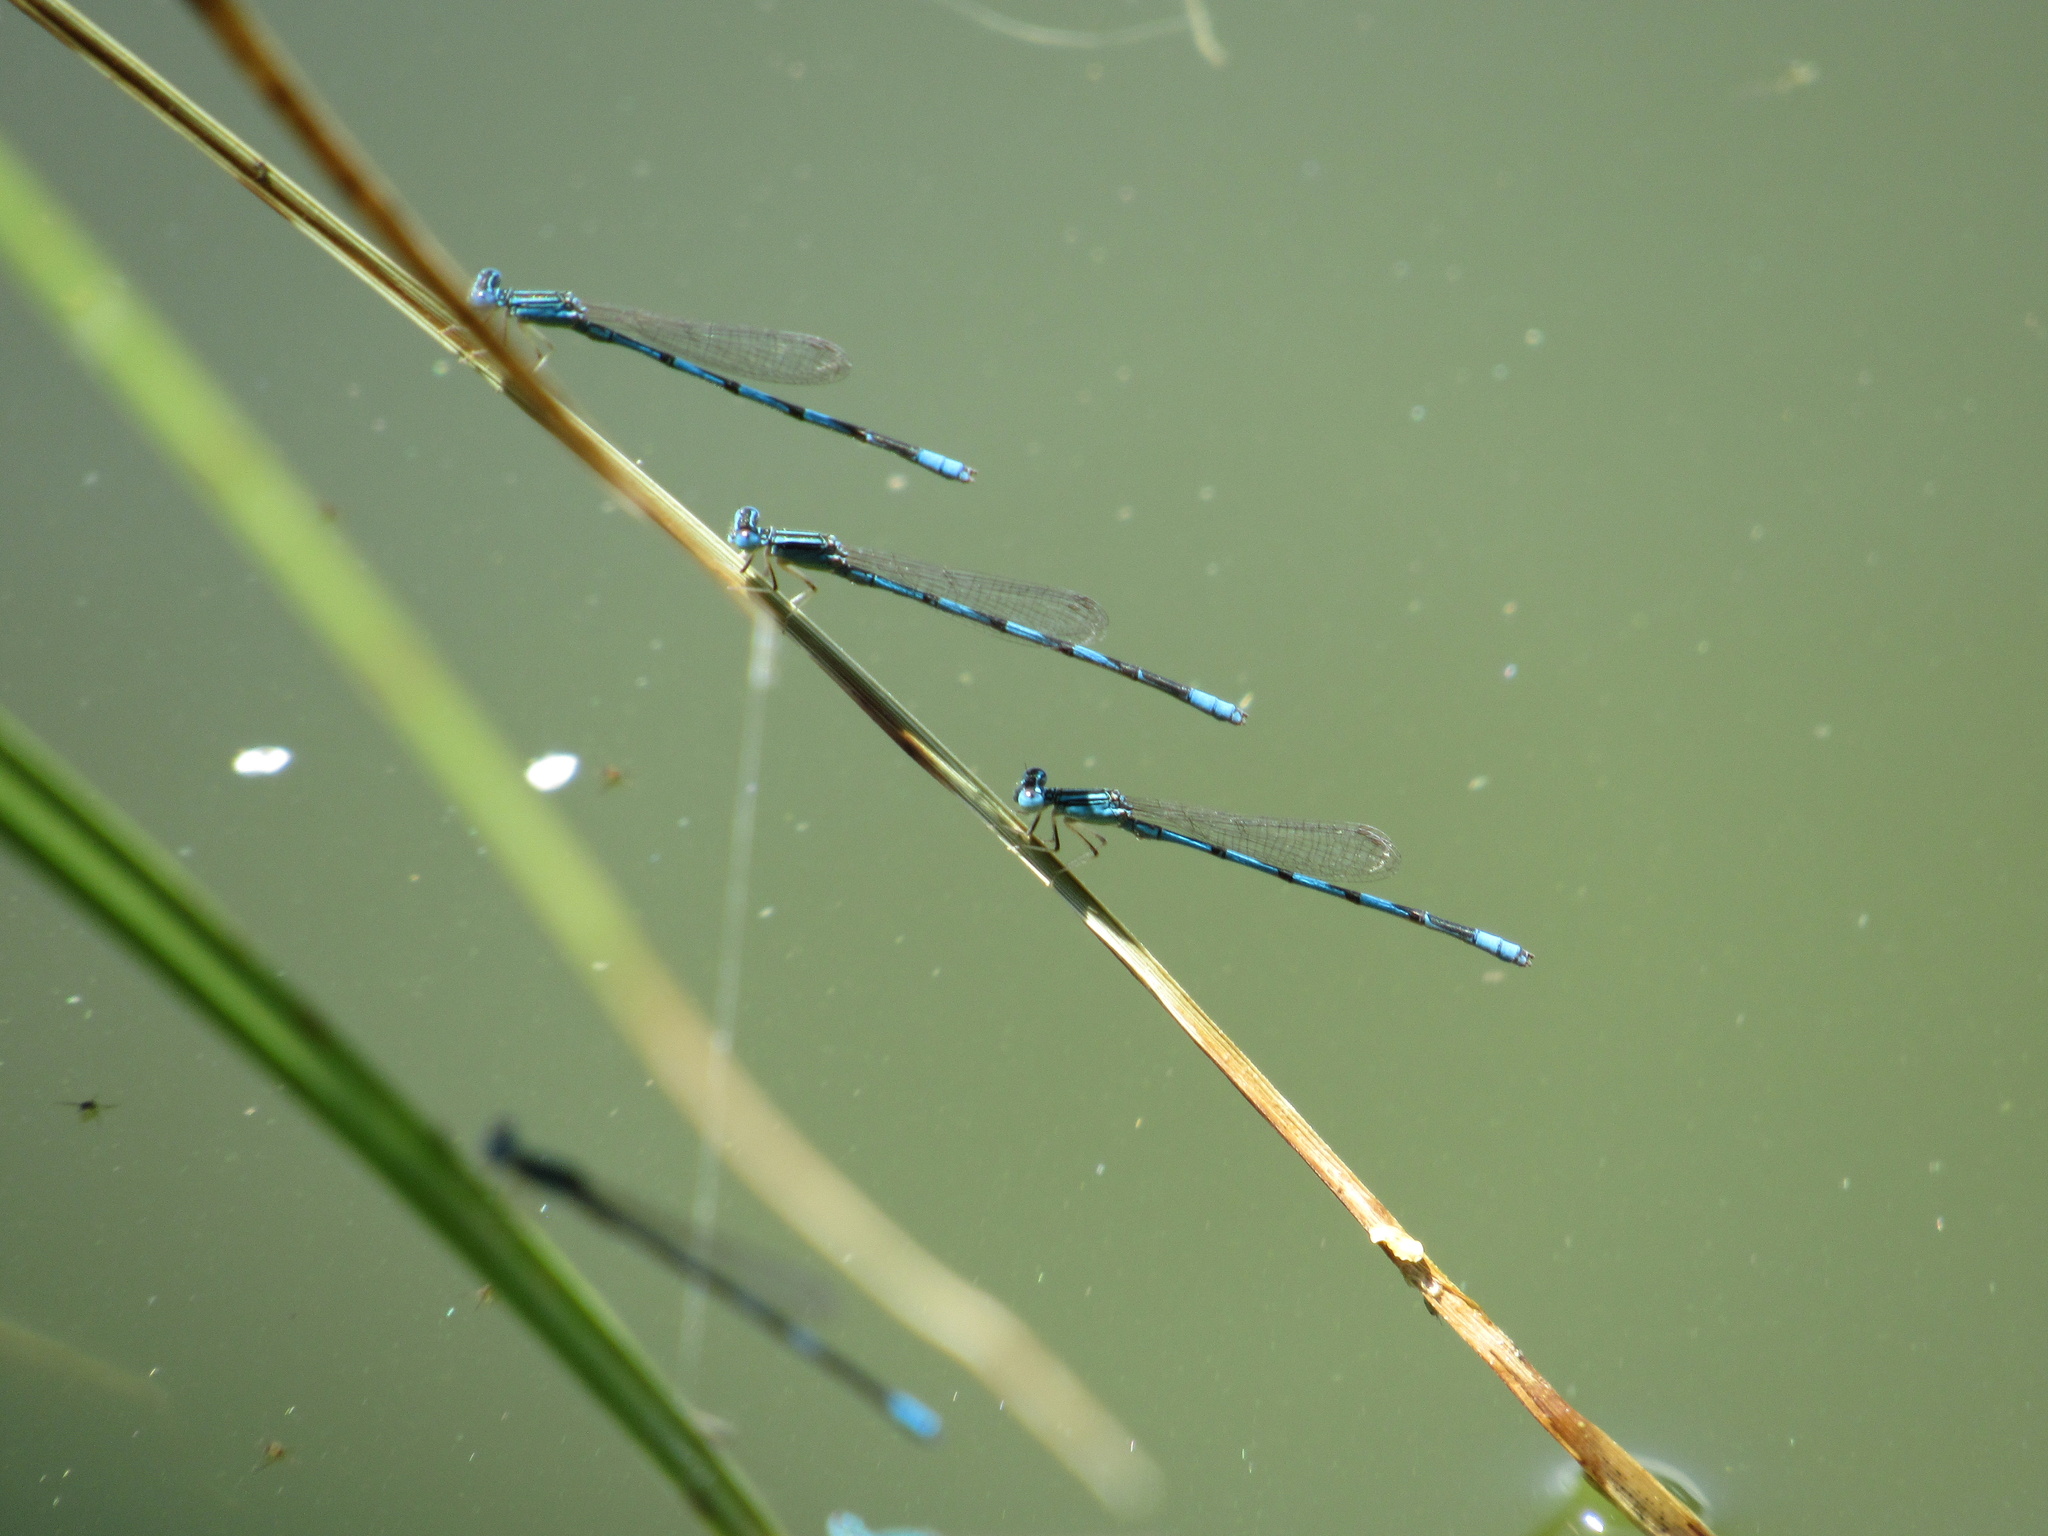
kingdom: Animalia
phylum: Arthropoda
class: Insecta
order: Odonata
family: Coenagrionidae
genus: Enallagma
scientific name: Enallagma basidens
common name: Double-striped bluet
